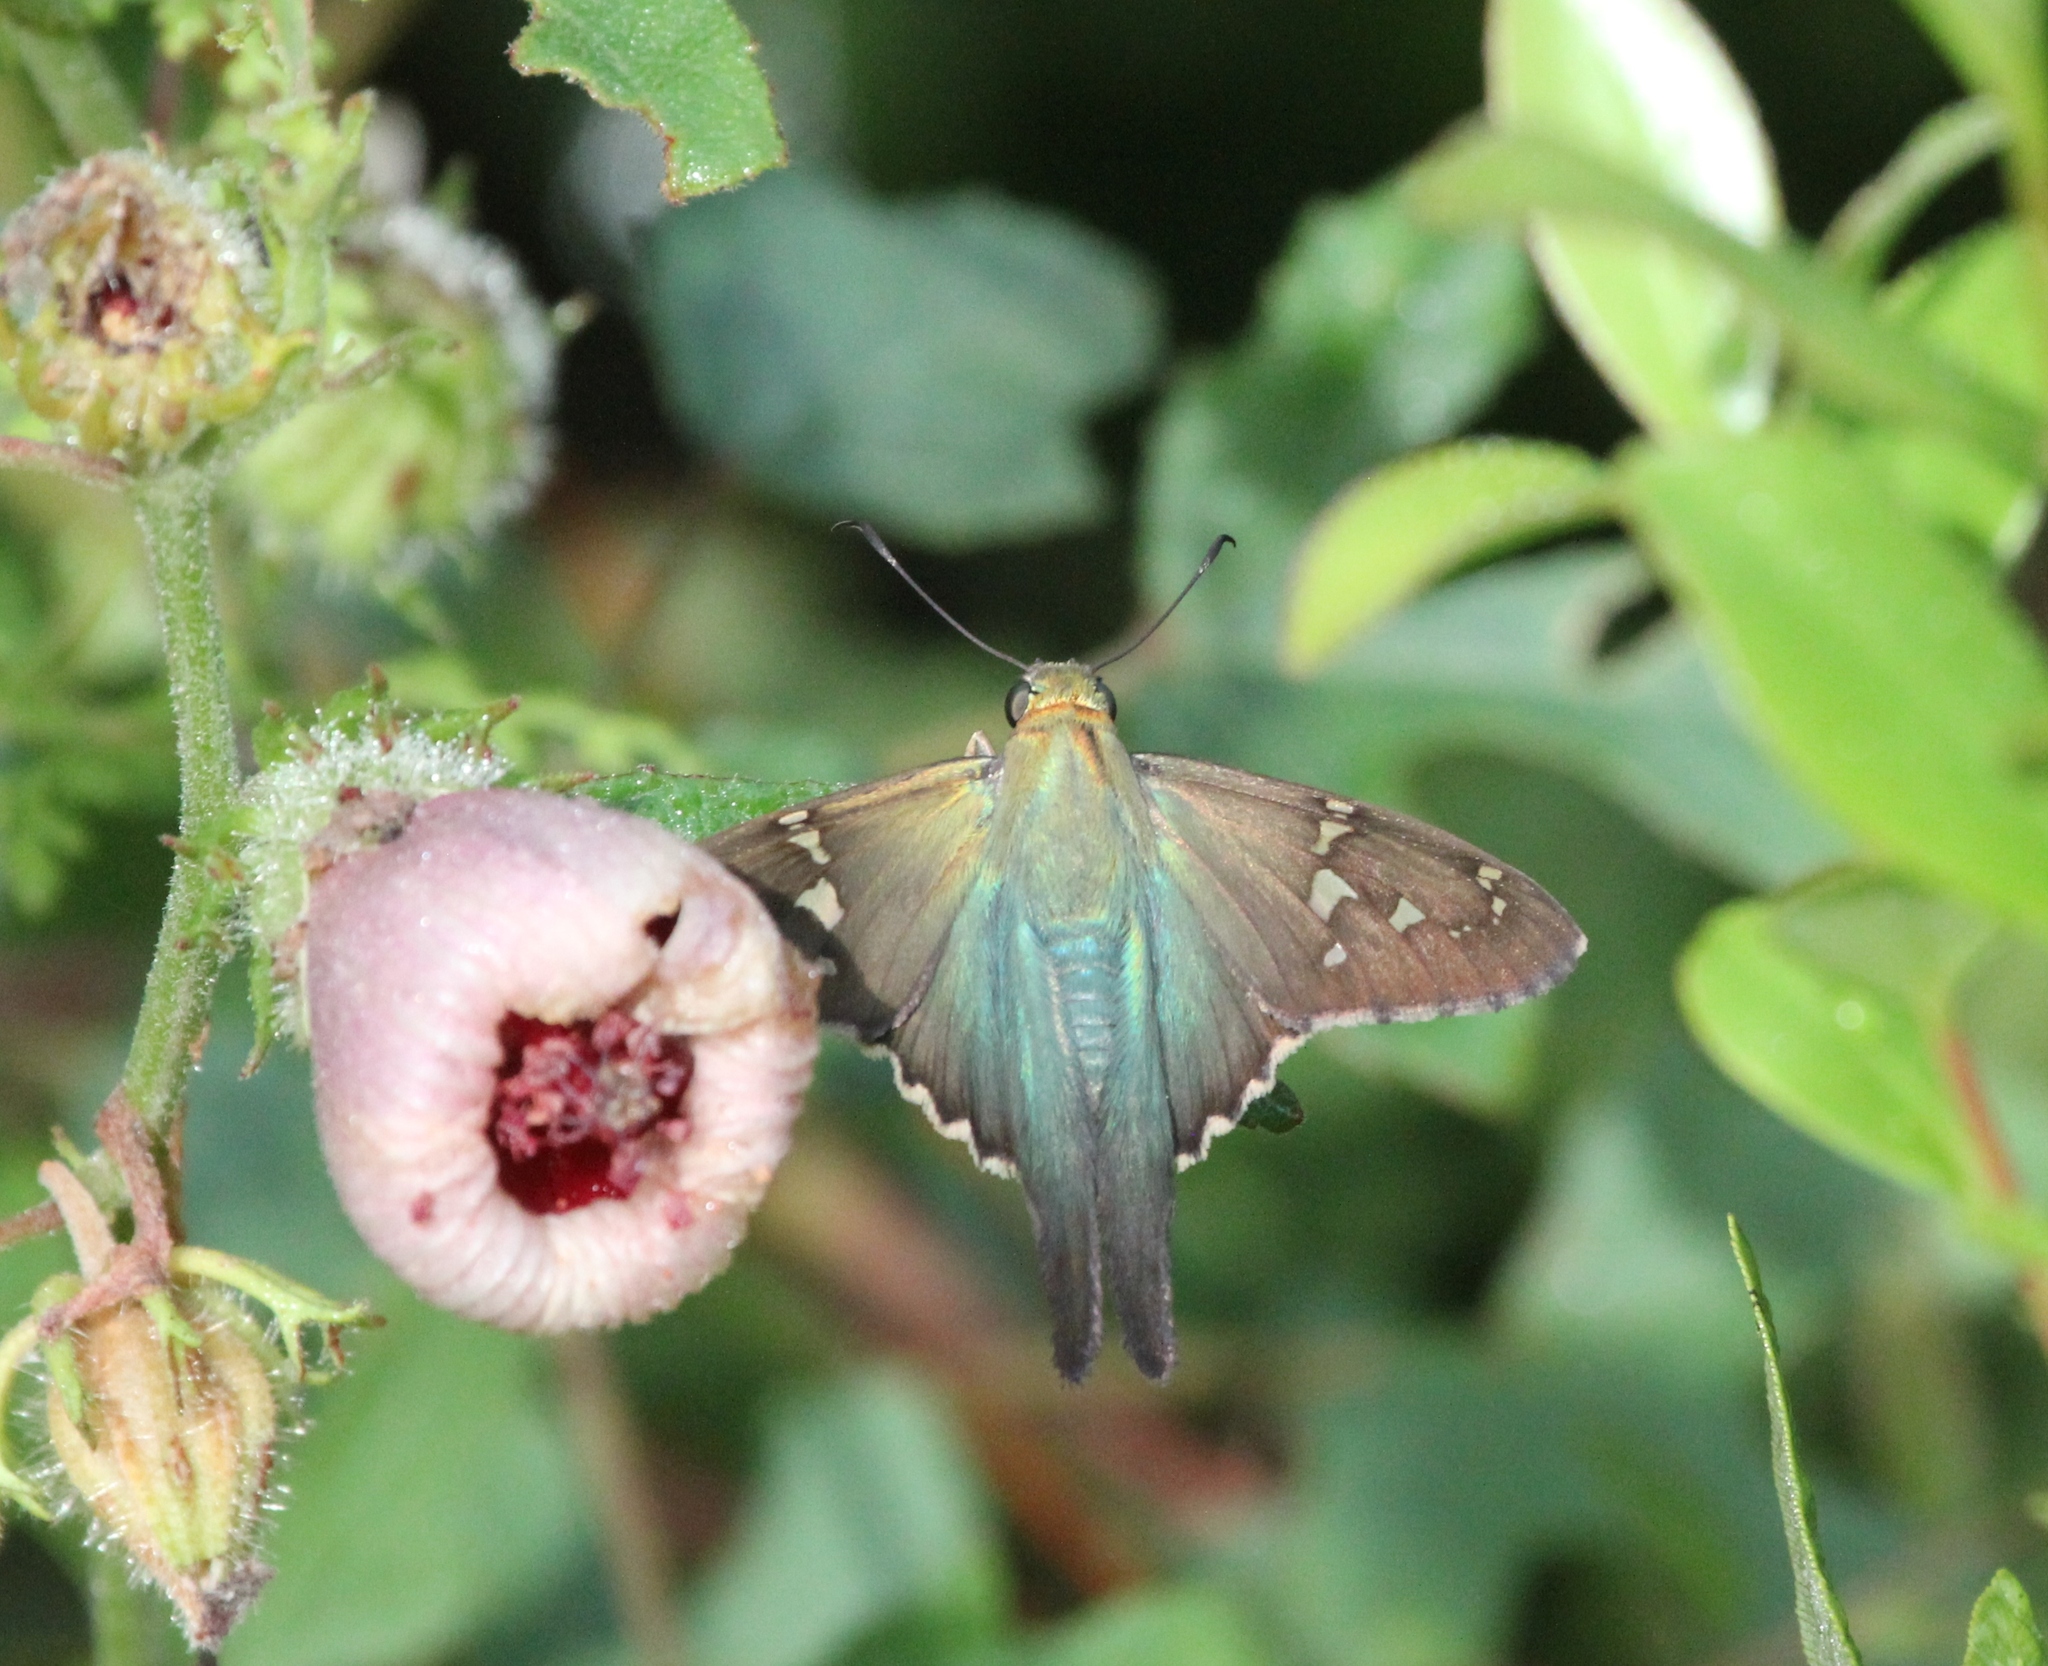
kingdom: Animalia
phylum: Arthropoda
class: Insecta
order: Lepidoptera
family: Hesperiidae
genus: Urbanus
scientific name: Urbanus proteus
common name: Long-tailed skipper
